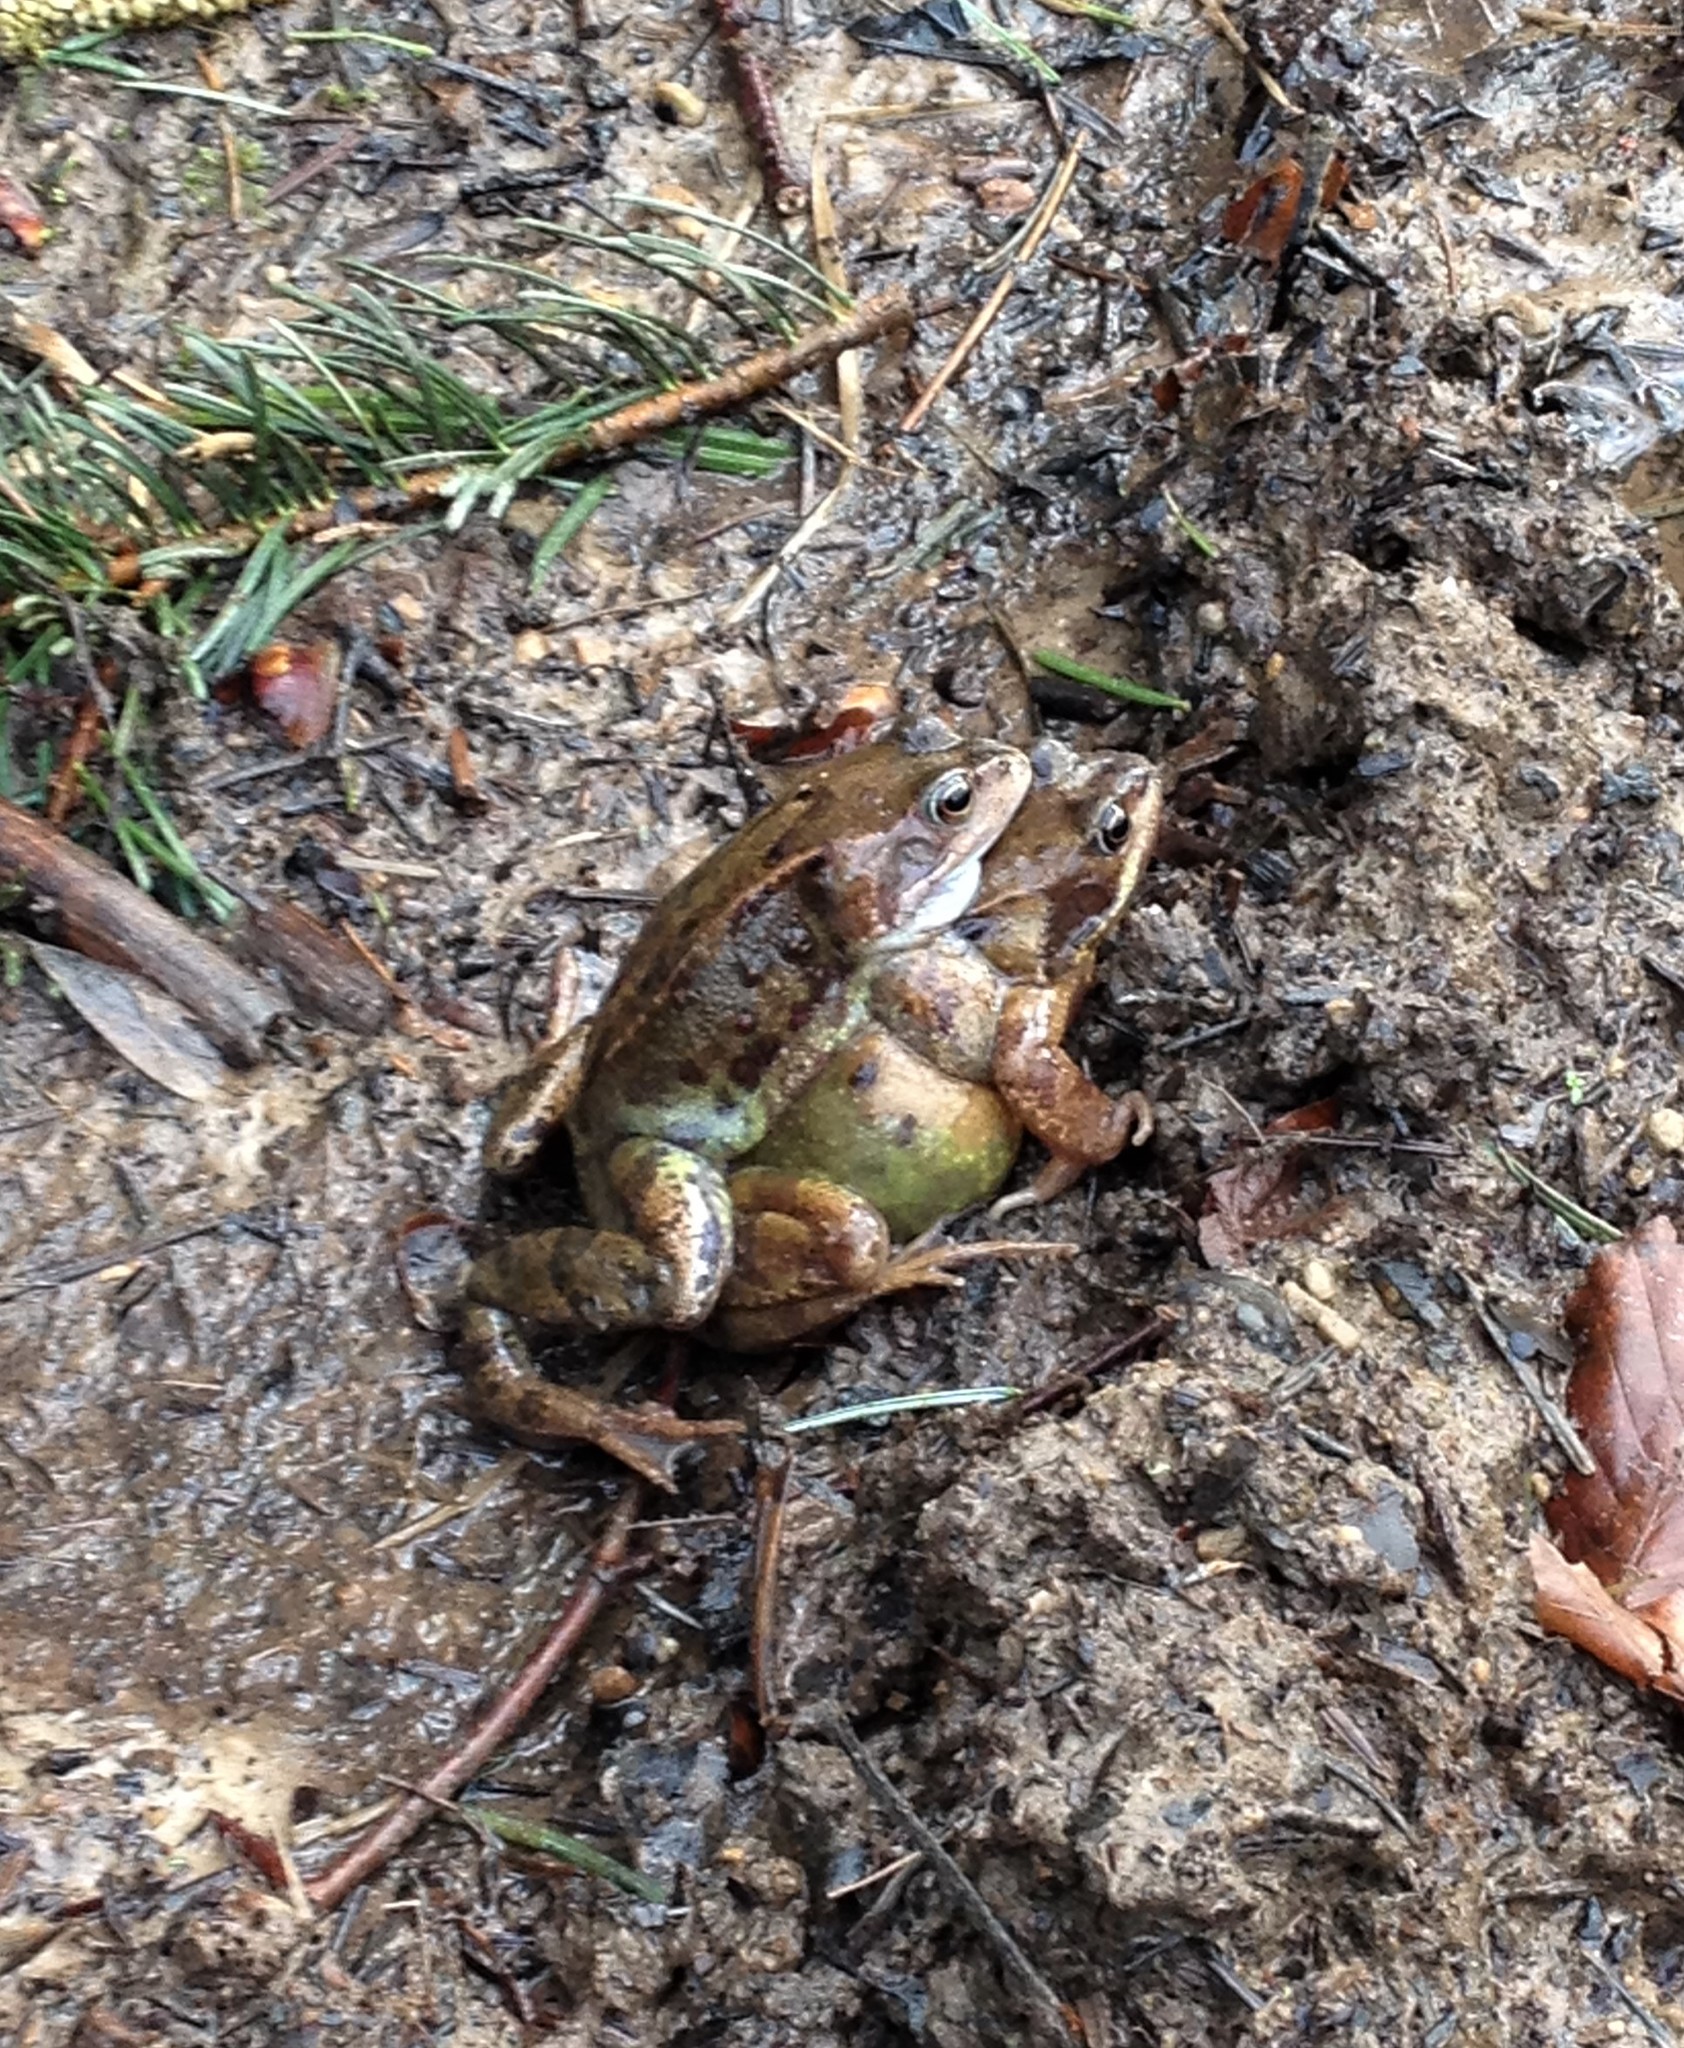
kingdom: Animalia
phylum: Chordata
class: Amphibia
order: Anura
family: Ranidae
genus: Rana
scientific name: Rana temporaria
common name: Common frog
